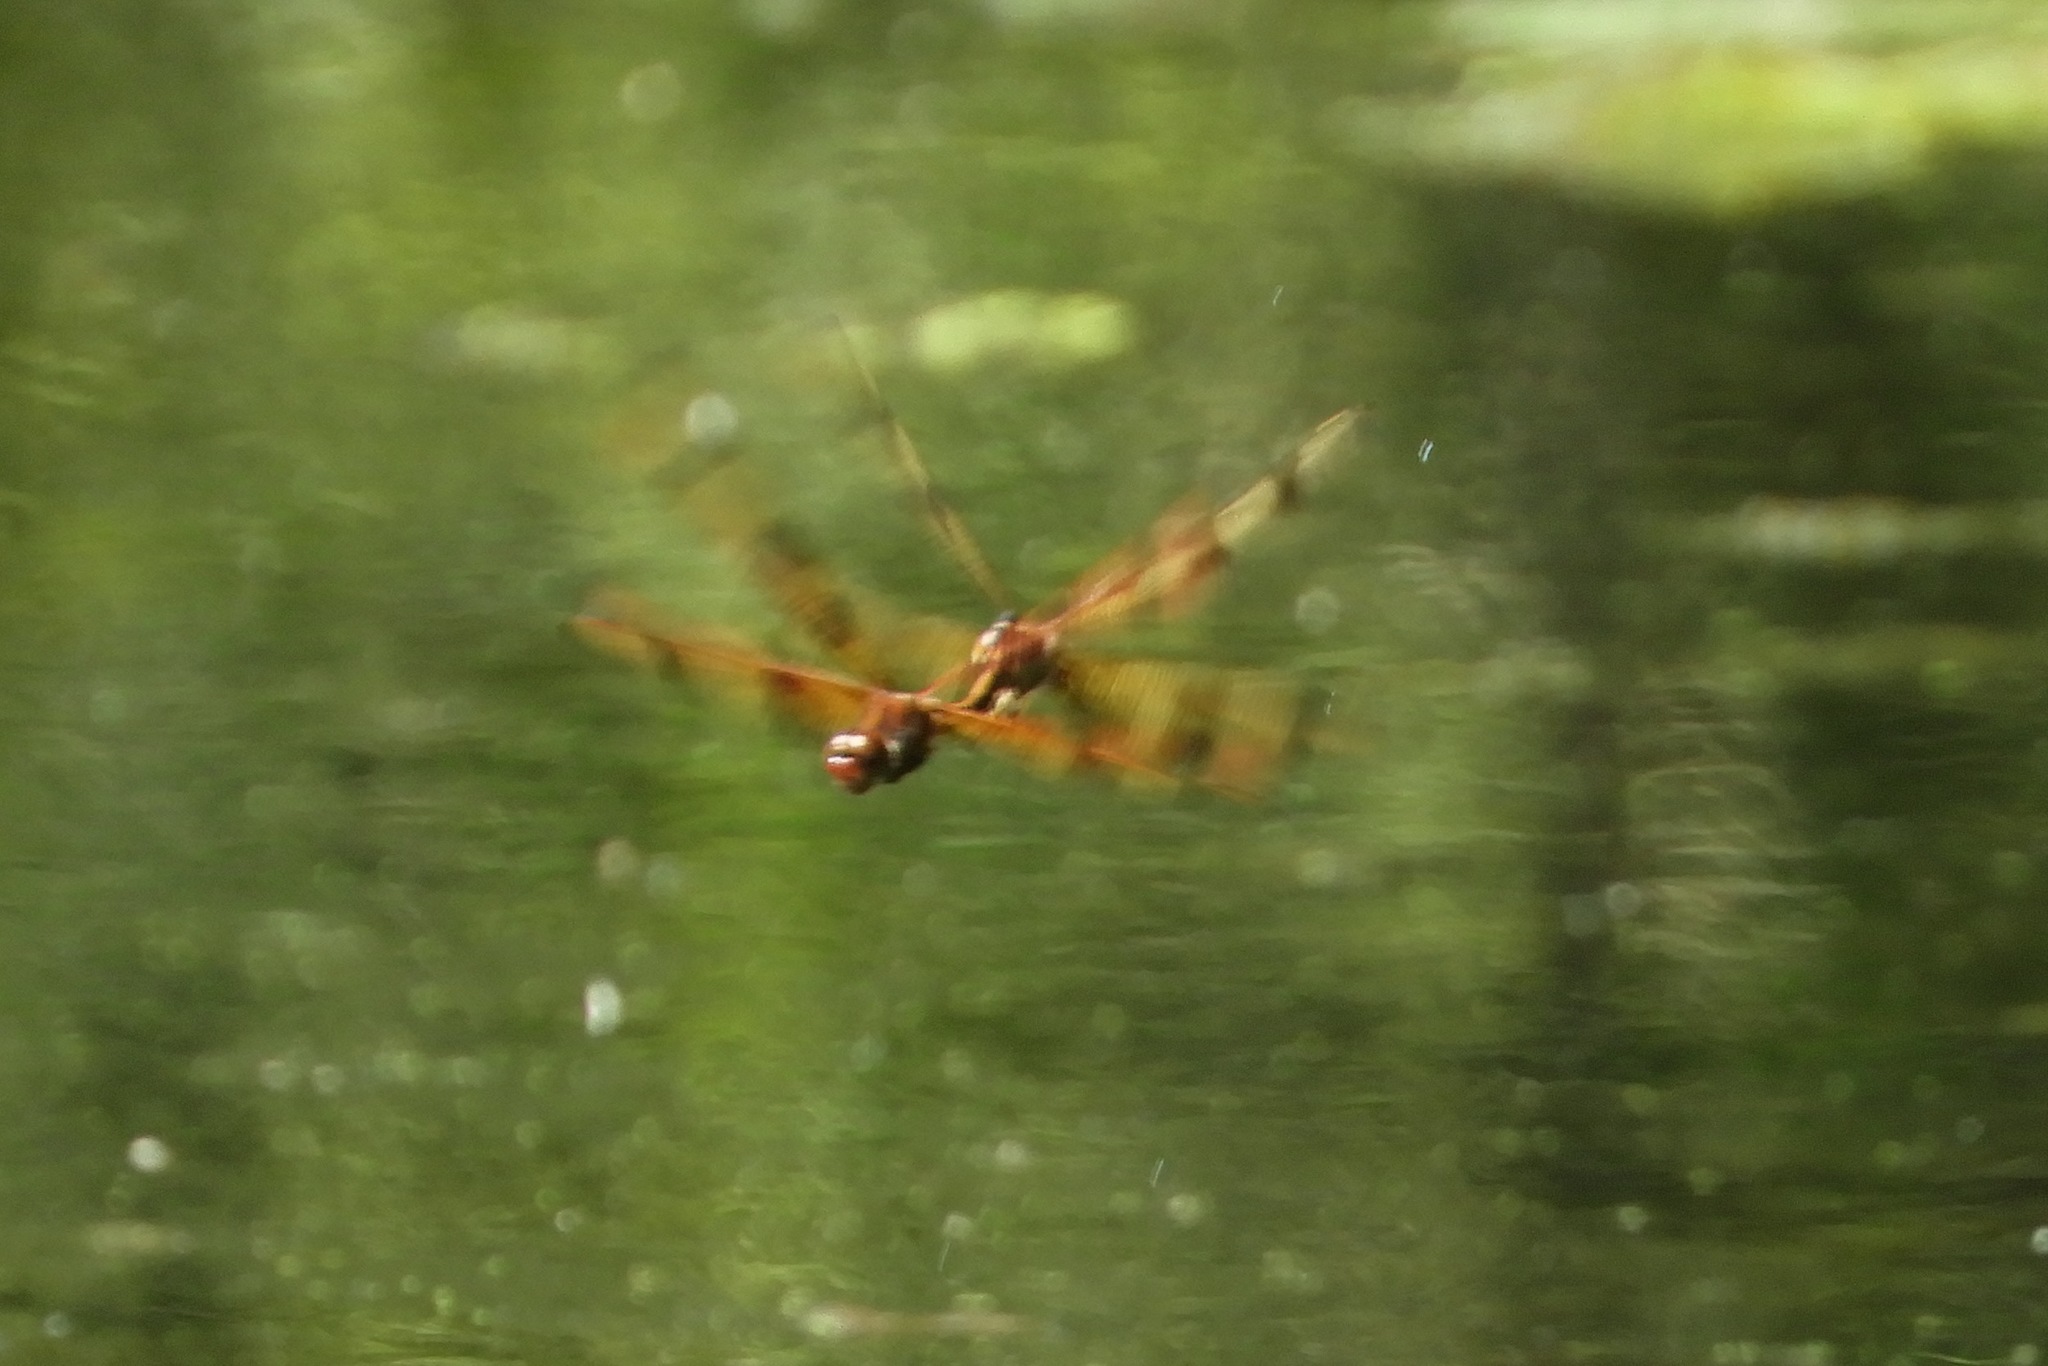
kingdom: Animalia
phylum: Arthropoda
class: Insecta
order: Odonata
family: Libellulidae
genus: Celithemis
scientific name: Celithemis eponina
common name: Halloween pennant
